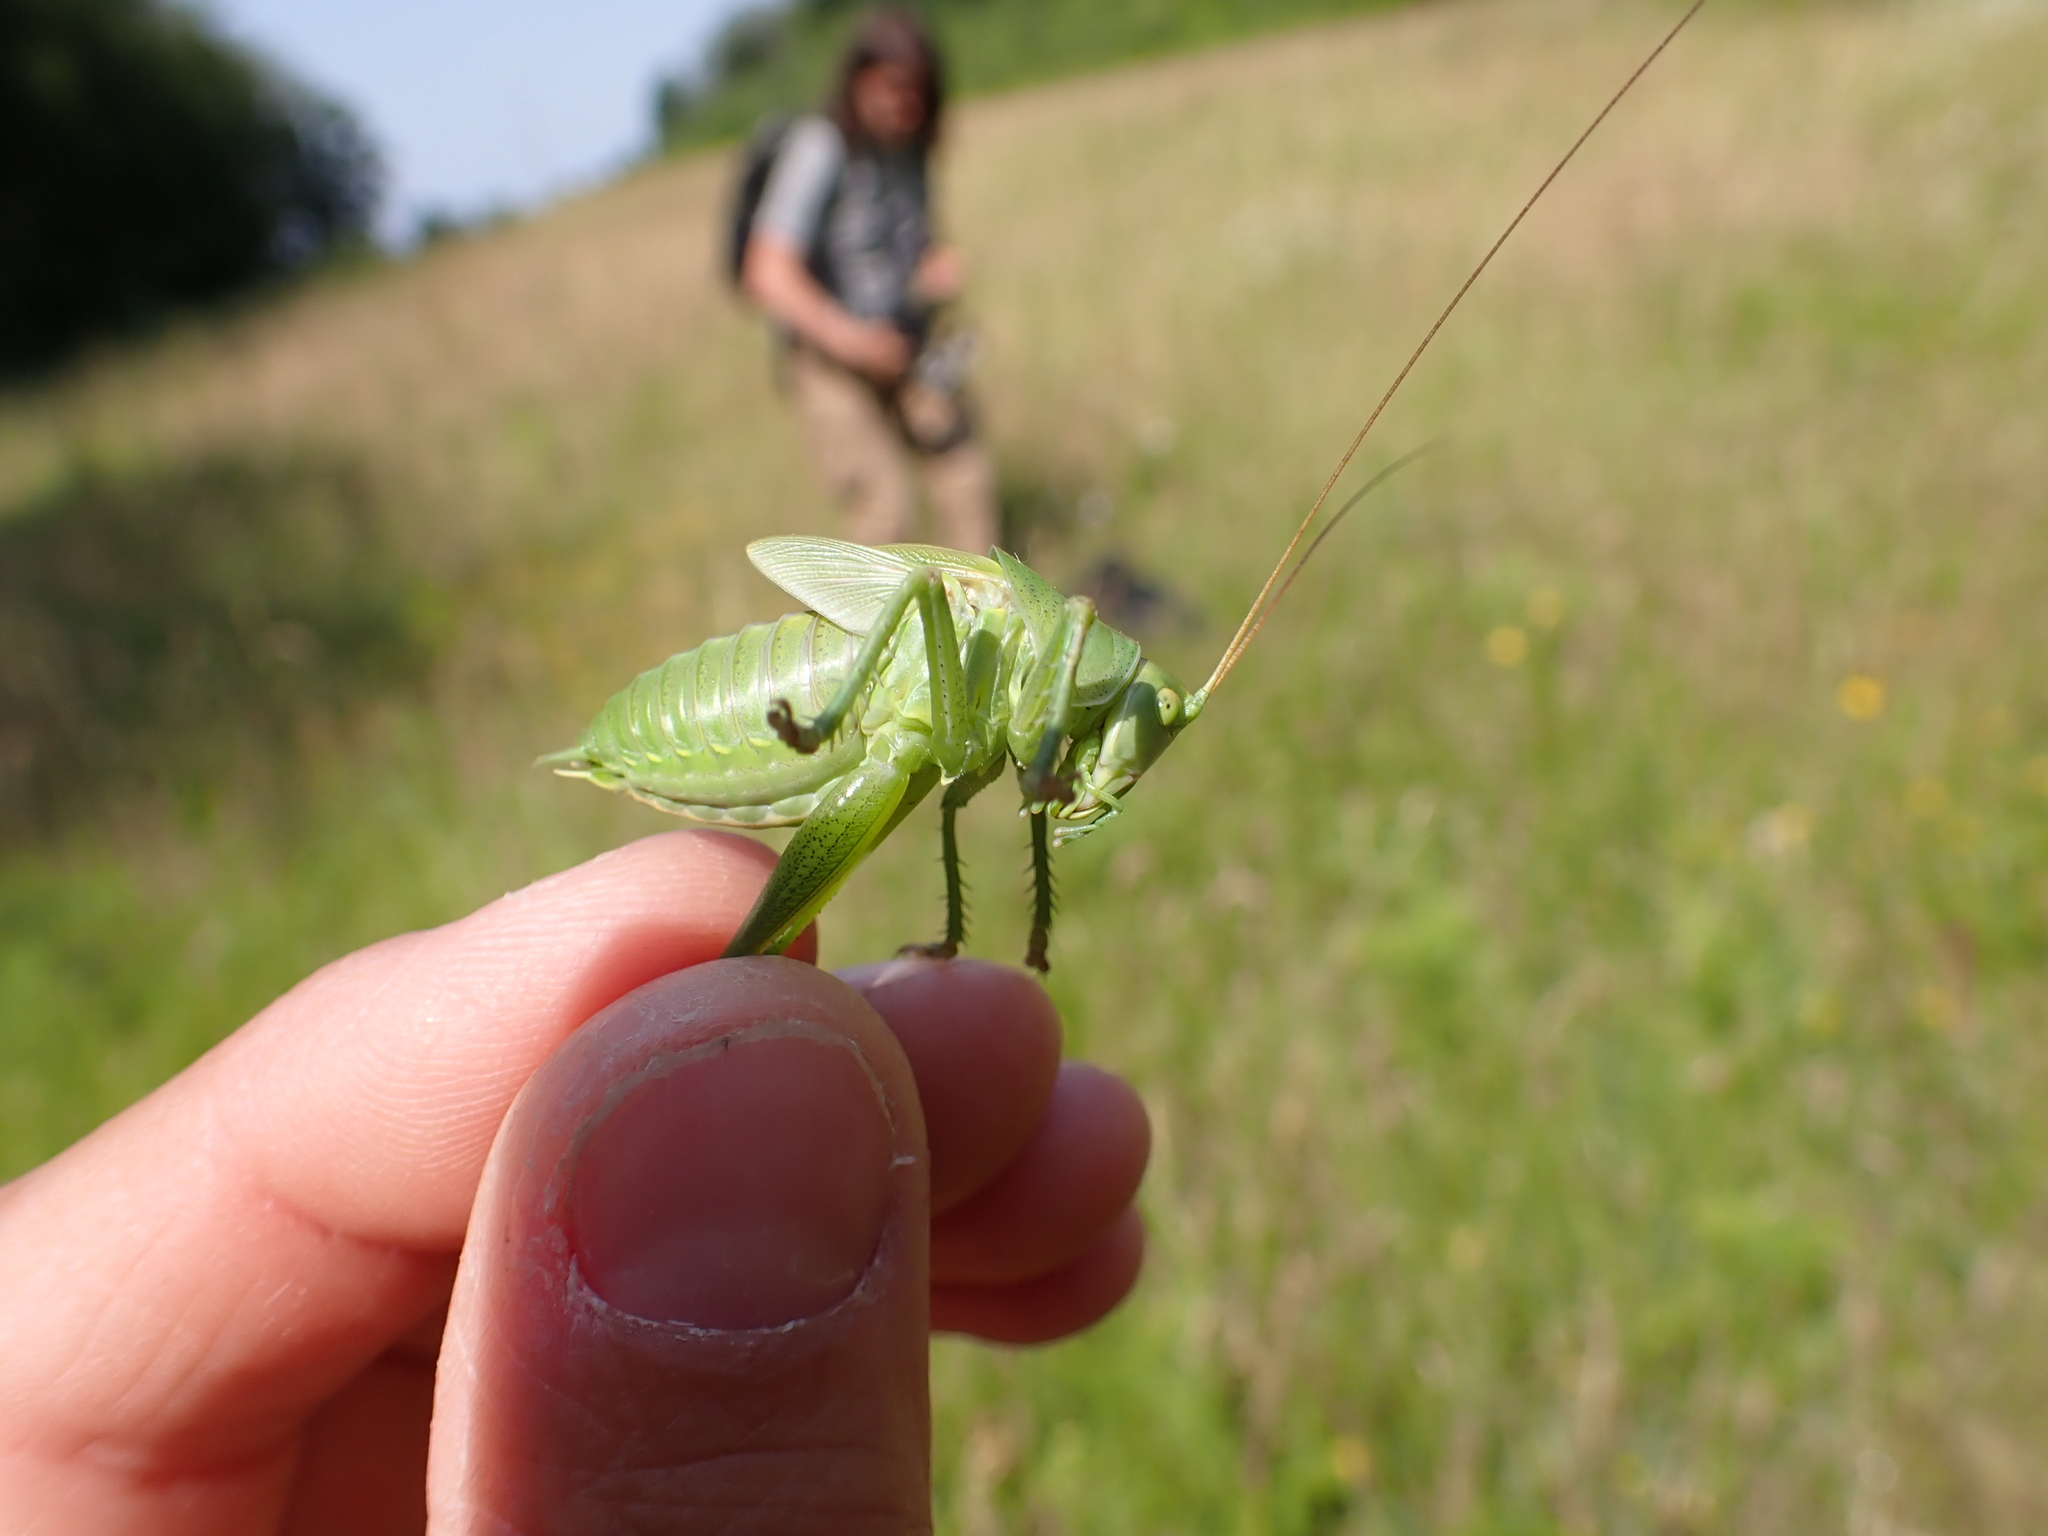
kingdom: Animalia
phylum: Arthropoda
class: Insecta
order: Orthoptera
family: Tettigoniidae
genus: Tettigonia
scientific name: Tettigonia viridissima
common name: Great green bush-cricket
